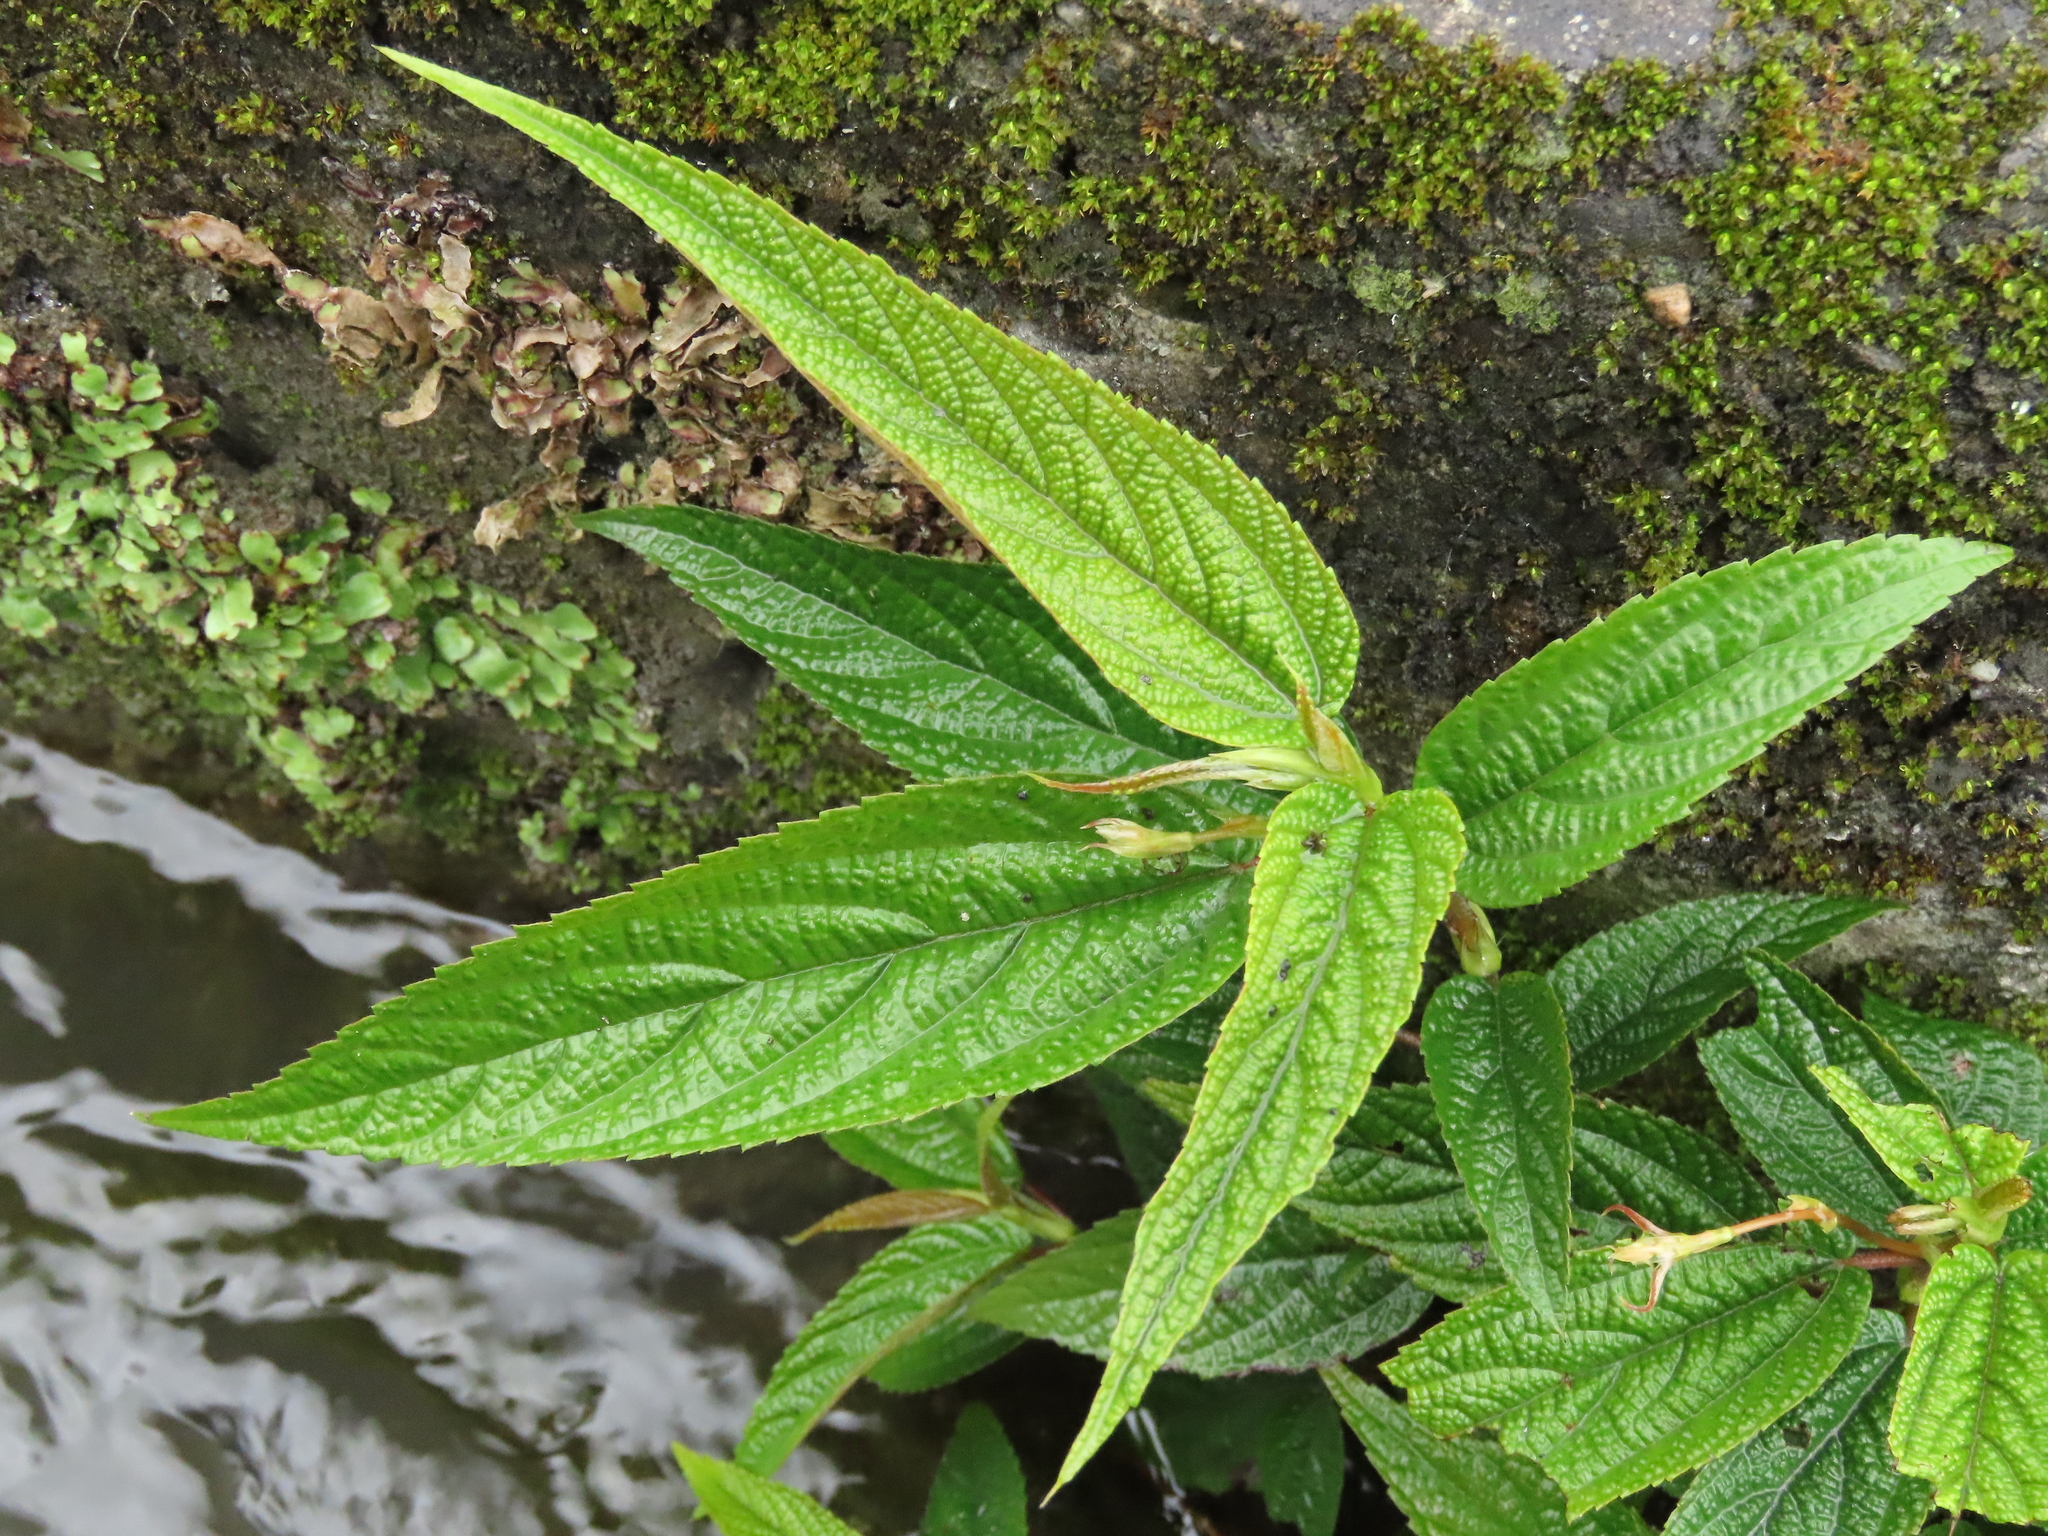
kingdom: Plantae
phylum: Tracheophyta
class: Magnoliopsida
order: Rosales
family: Urticaceae
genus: Boehmeria
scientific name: Boehmeria densiflora
